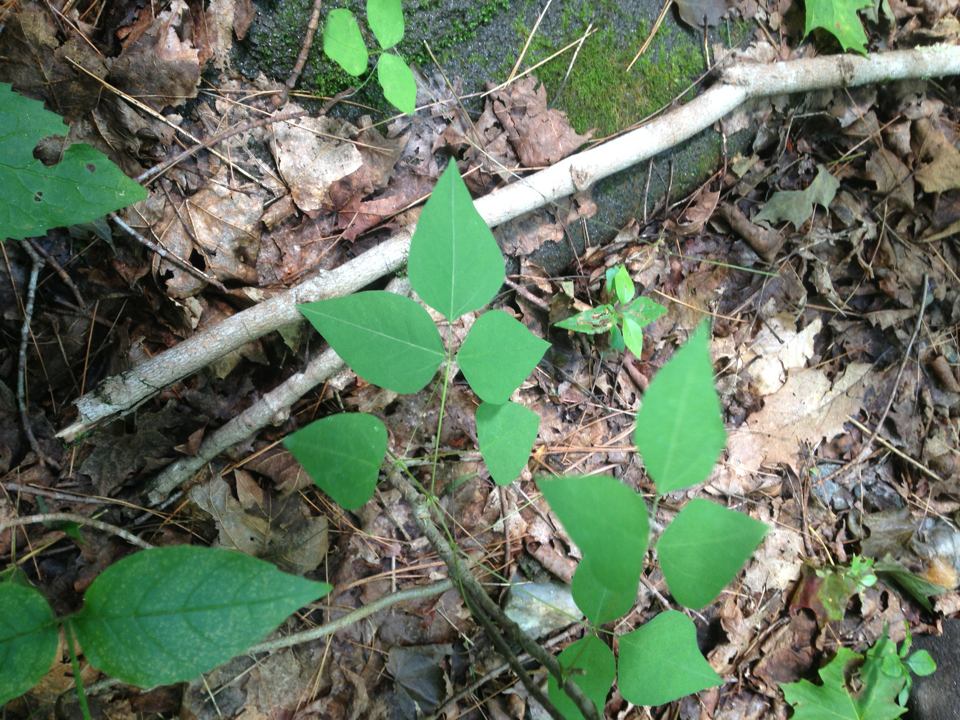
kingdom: Plantae
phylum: Tracheophyta
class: Magnoliopsida
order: Fabales
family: Fabaceae
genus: Amphicarpaea
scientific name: Amphicarpaea bracteata
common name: American hog peanut
